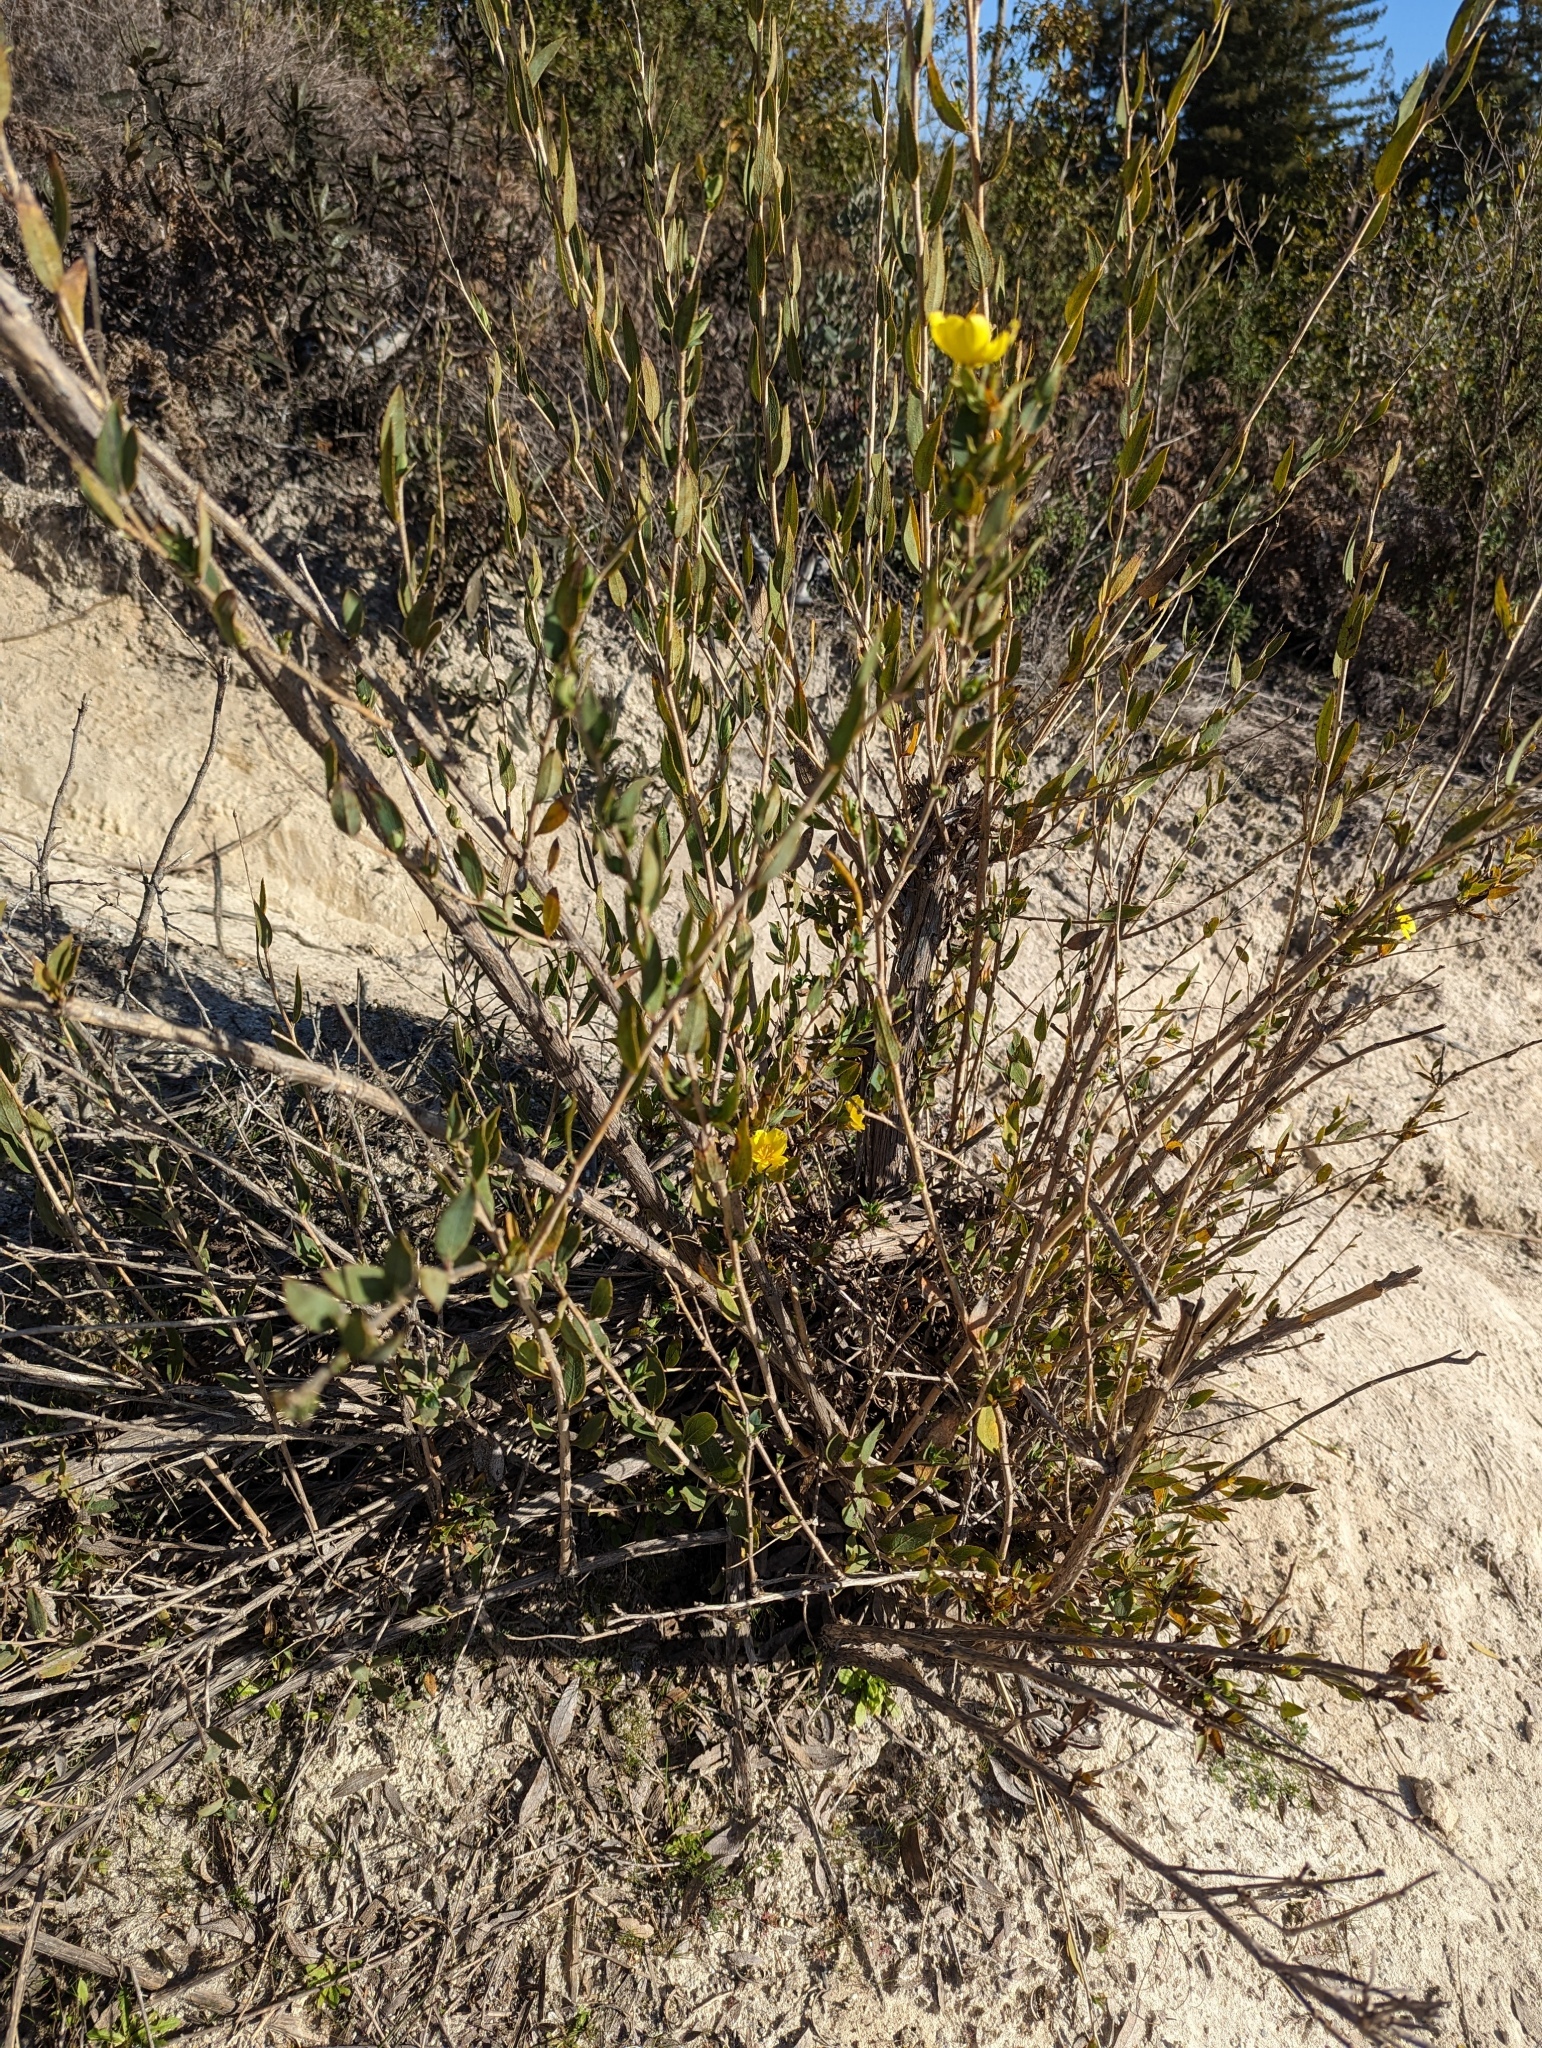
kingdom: Plantae
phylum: Tracheophyta
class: Magnoliopsida
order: Ranunculales
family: Papaveraceae
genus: Dendromecon
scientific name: Dendromecon rigida
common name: Tree poppy
